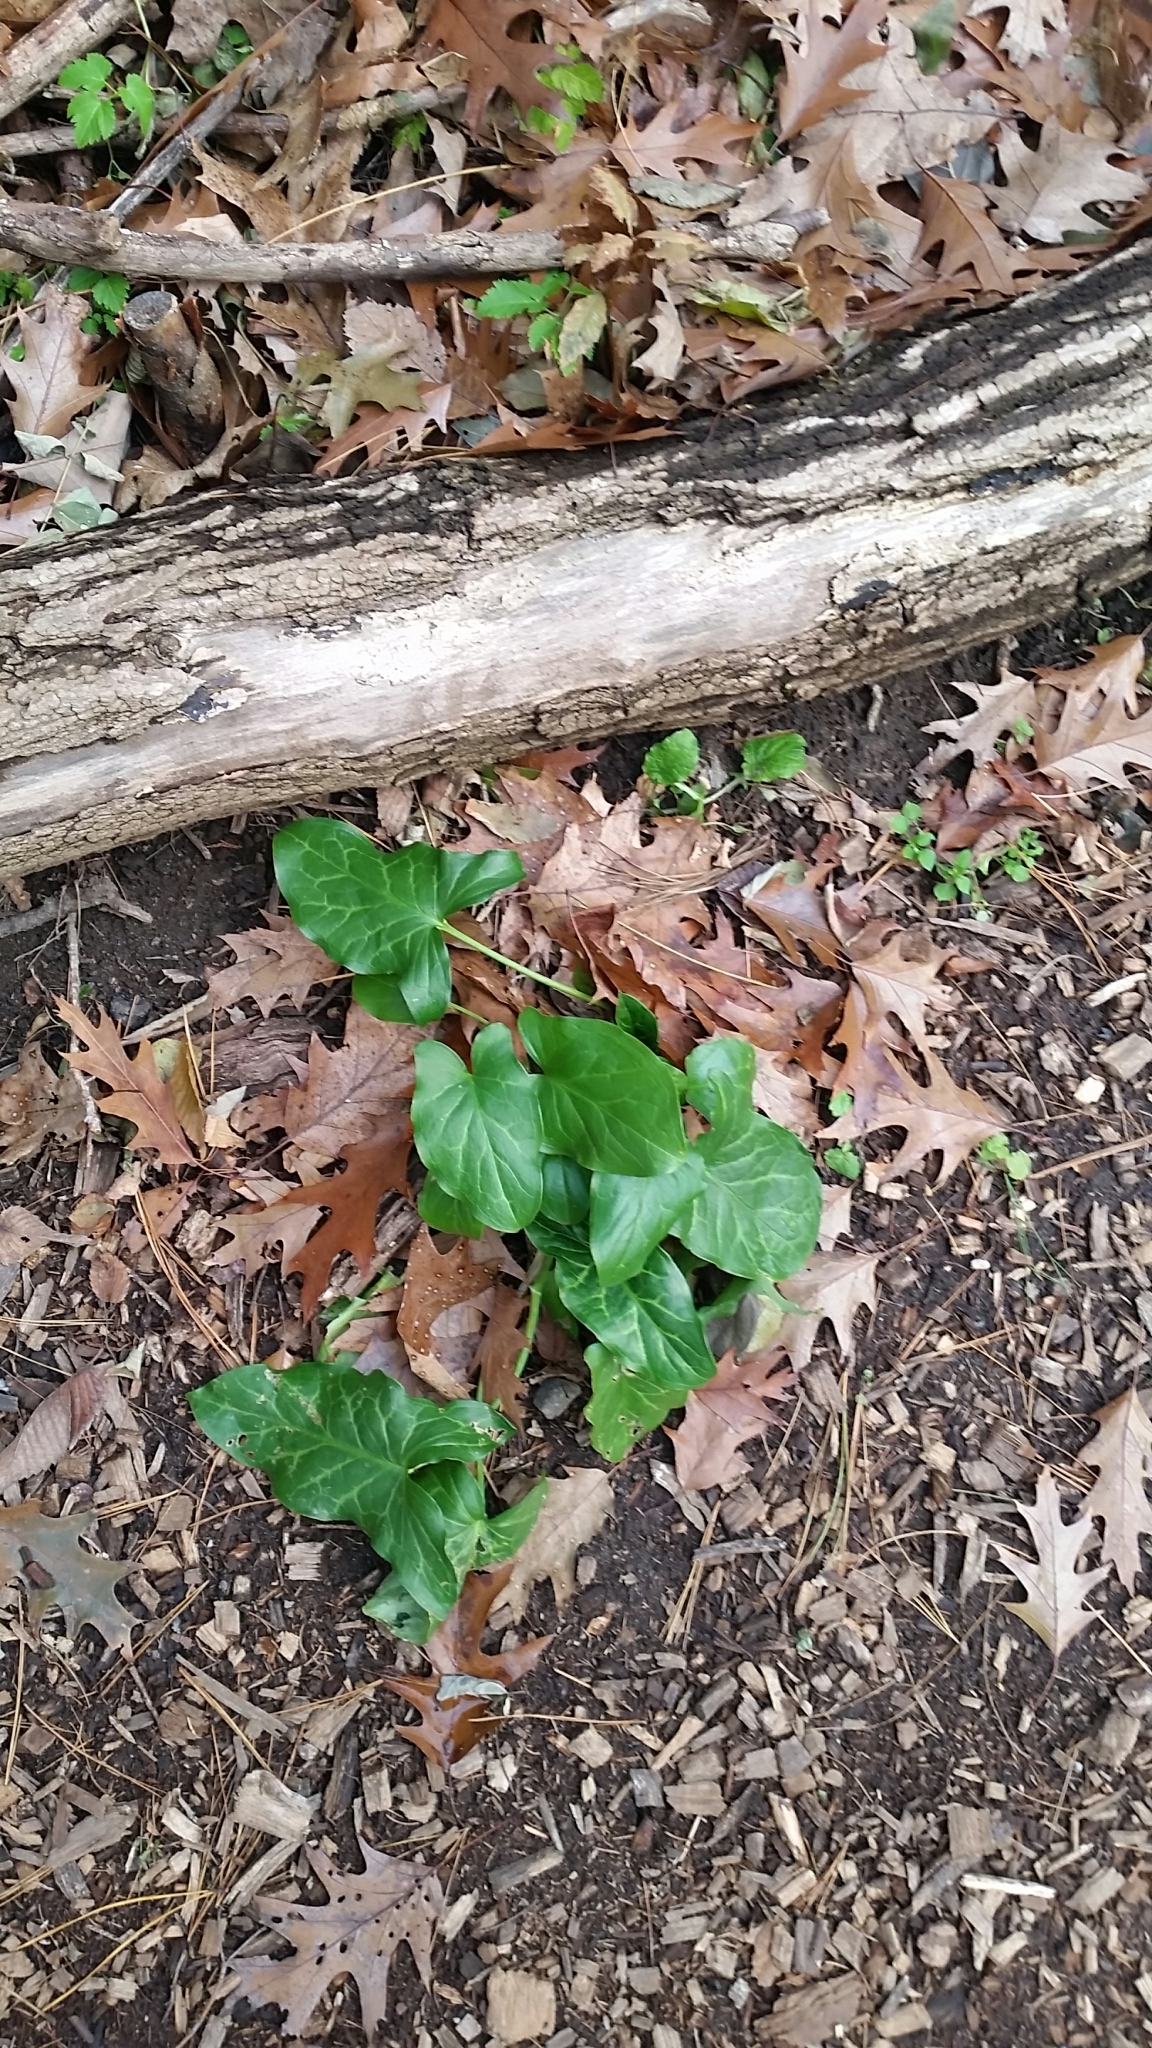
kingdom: Plantae
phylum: Tracheophyta
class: Liliopsida
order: Alismatales
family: Araceae
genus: Arum
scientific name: Arum italicum
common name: Italian lords-and-ladies
